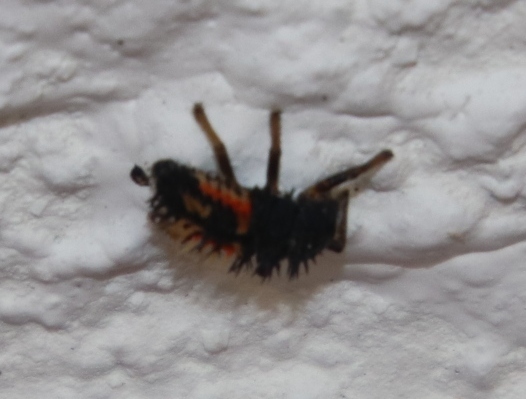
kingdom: Animalia
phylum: Arthropoda
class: Insecta
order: Coleoptera
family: Coccinellidae
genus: Harmonia
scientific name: Harmonia axyridis
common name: Harlequin ladybird
